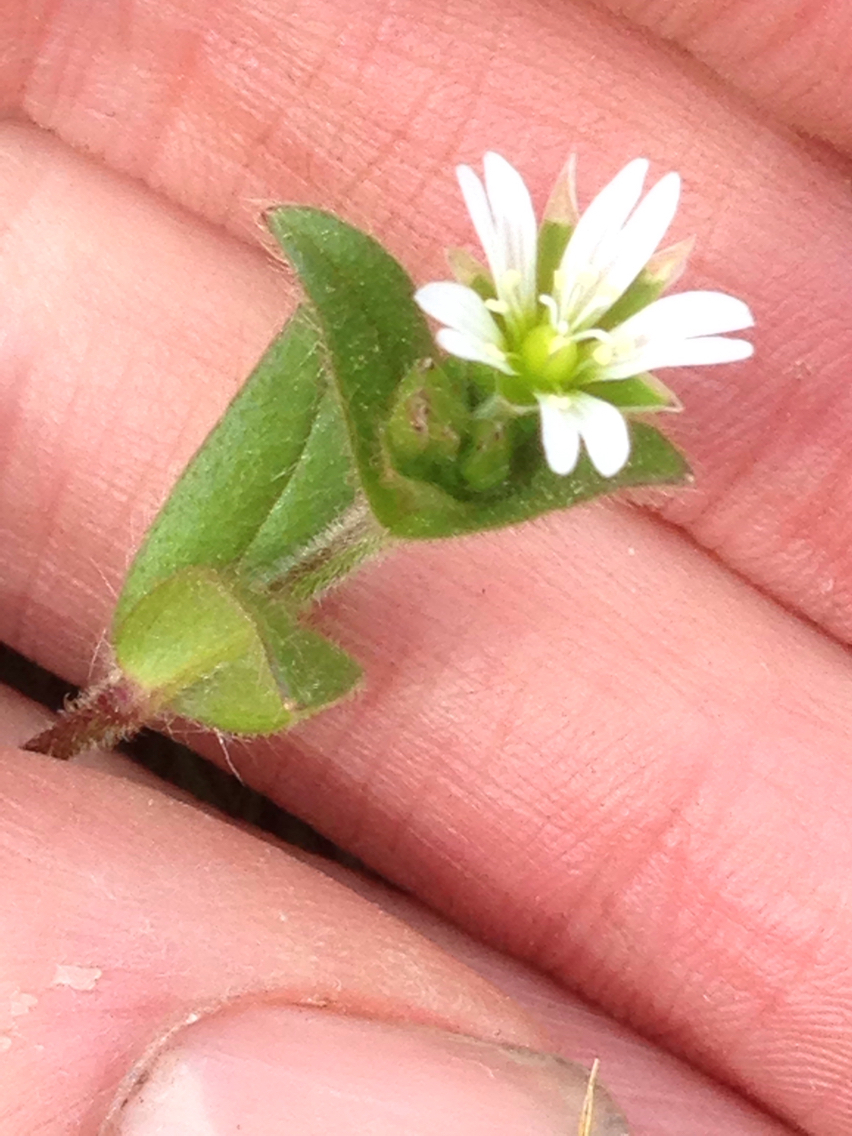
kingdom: Plantae
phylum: Tracheophyta
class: Magnoliopsida
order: Caryophyllales
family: Caryophyllaceae
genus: Cerastium
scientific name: Cerastium fontanum
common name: Common mouse-ear
